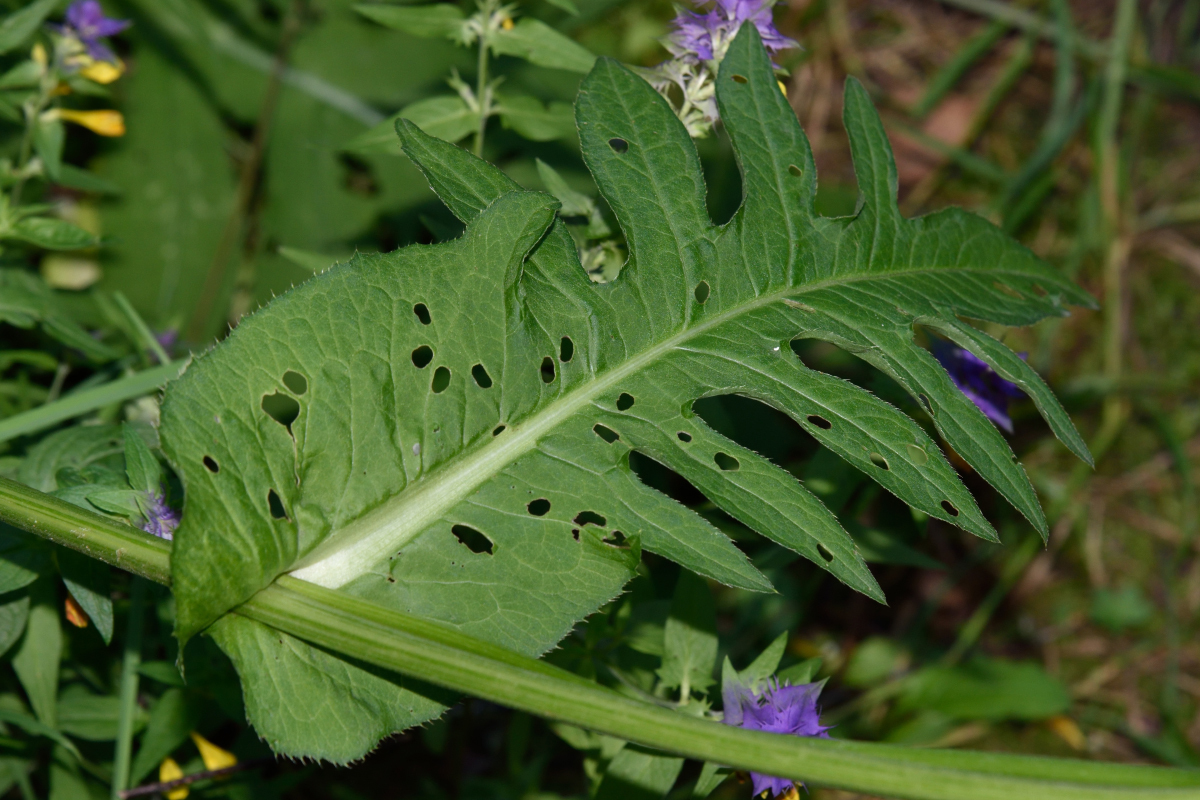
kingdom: Plantae
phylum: Tracheophyta
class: Magnoliopsida
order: Asterales
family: Asteraceae
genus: Cirsium
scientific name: Cirsium oleraceum
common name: Cabbage thistle
